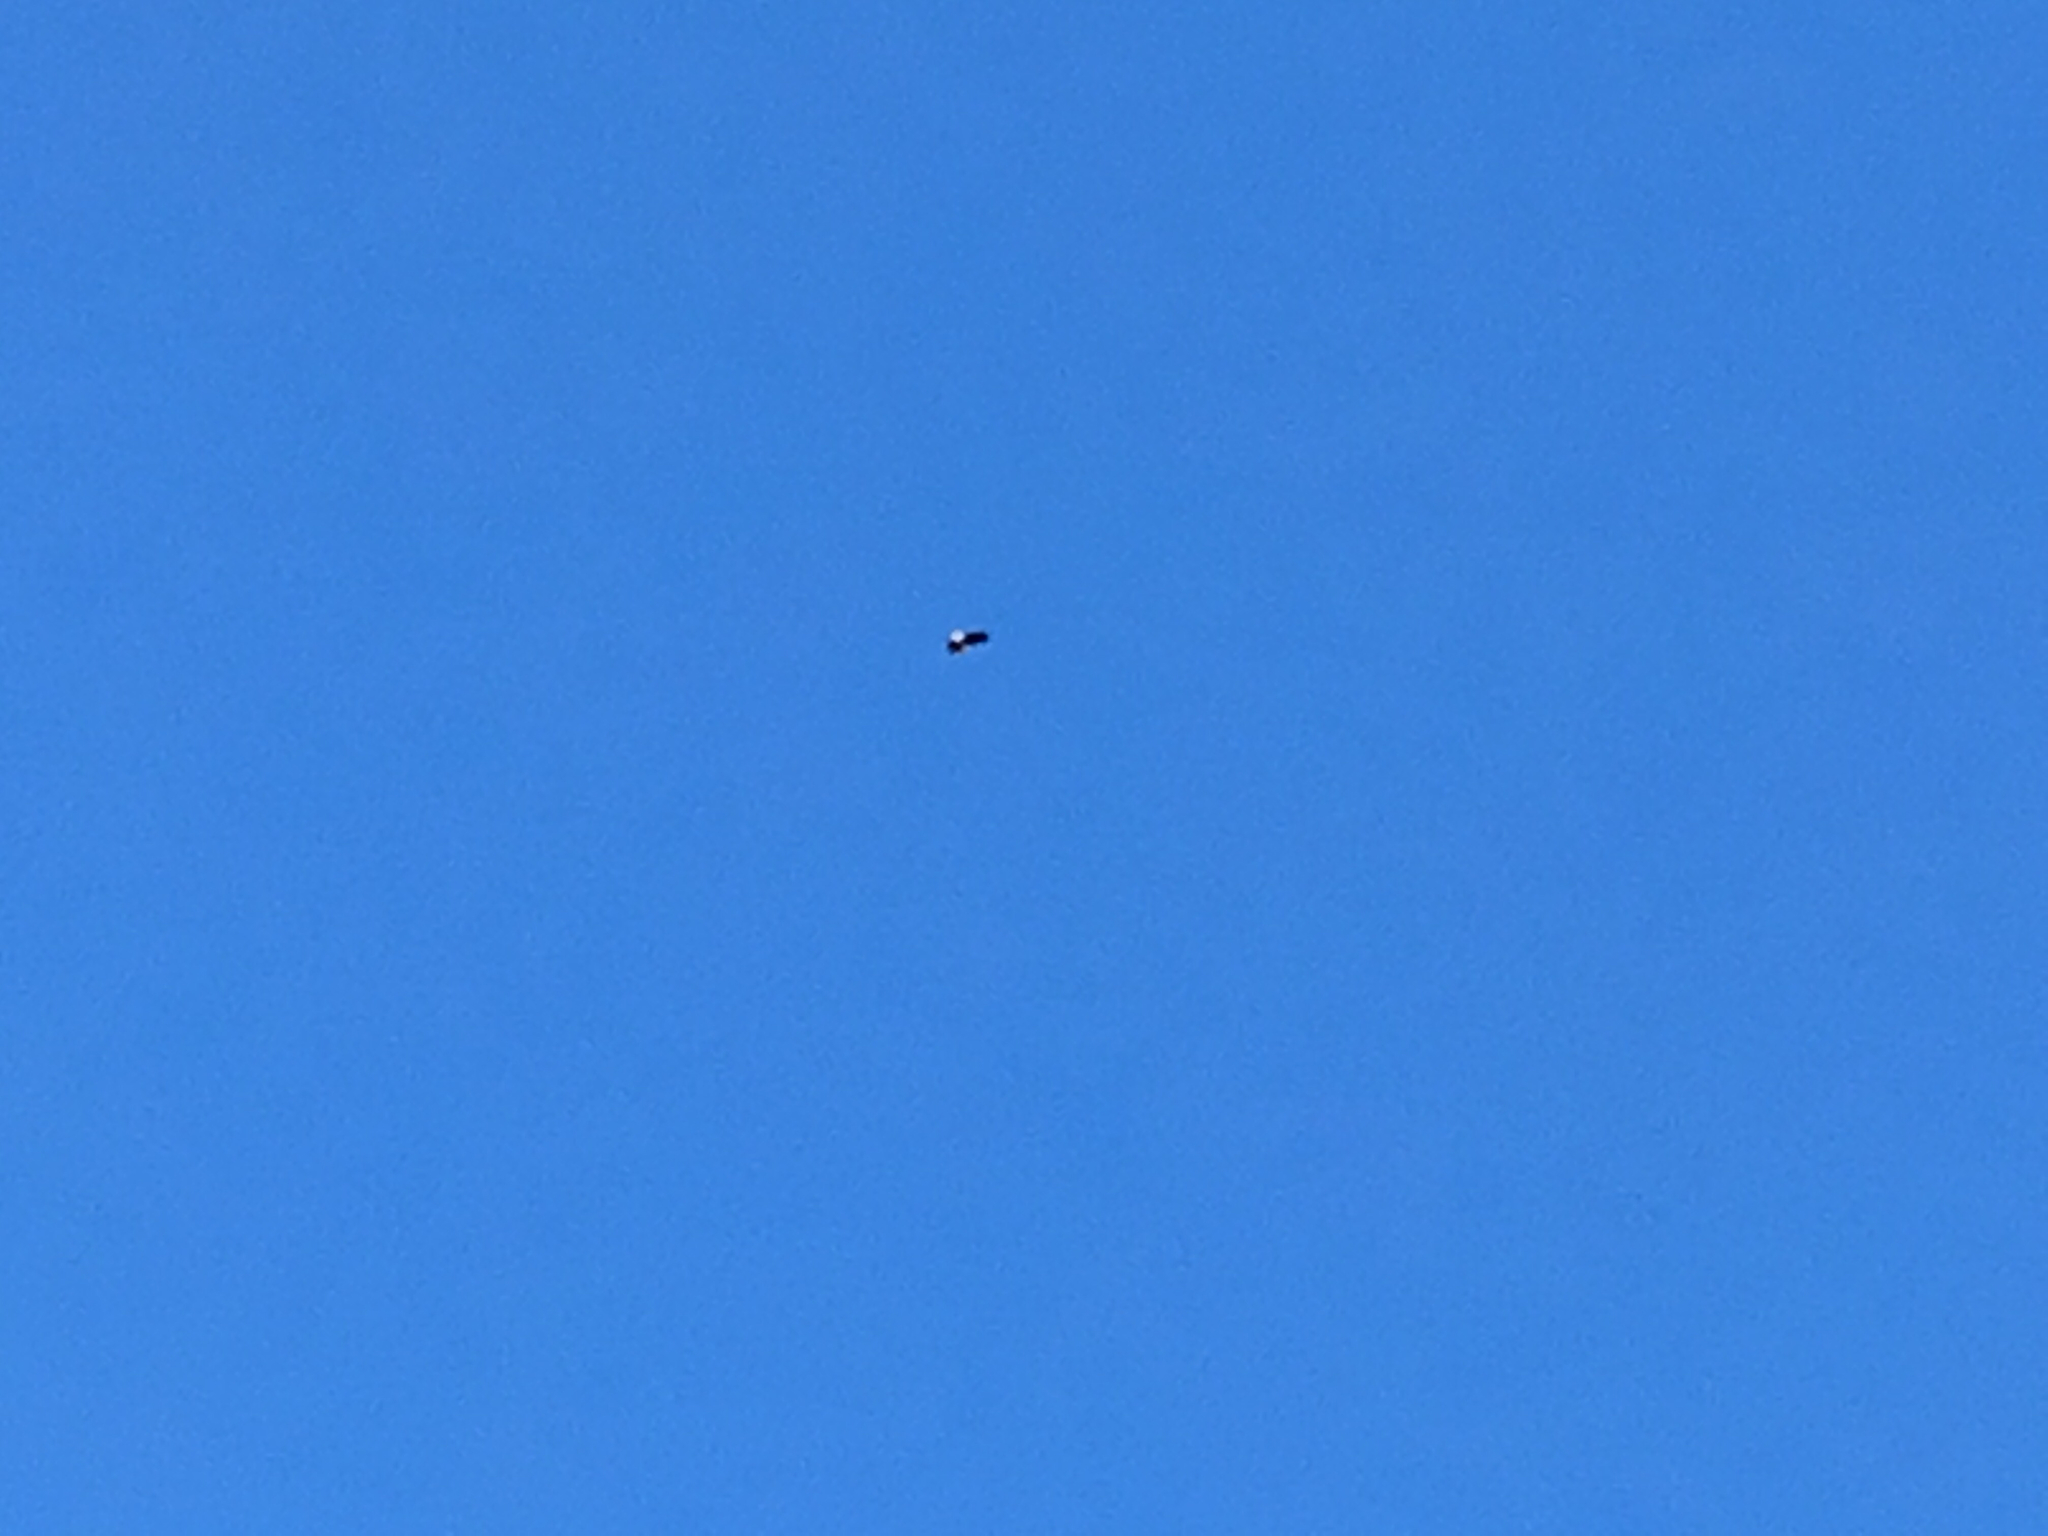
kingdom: Animalia
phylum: Chordata
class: Aves
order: Accipitriformes
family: Accipitridae
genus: Haliaeetus
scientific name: Haliaeetus leucocephalus
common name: Bald eagle
